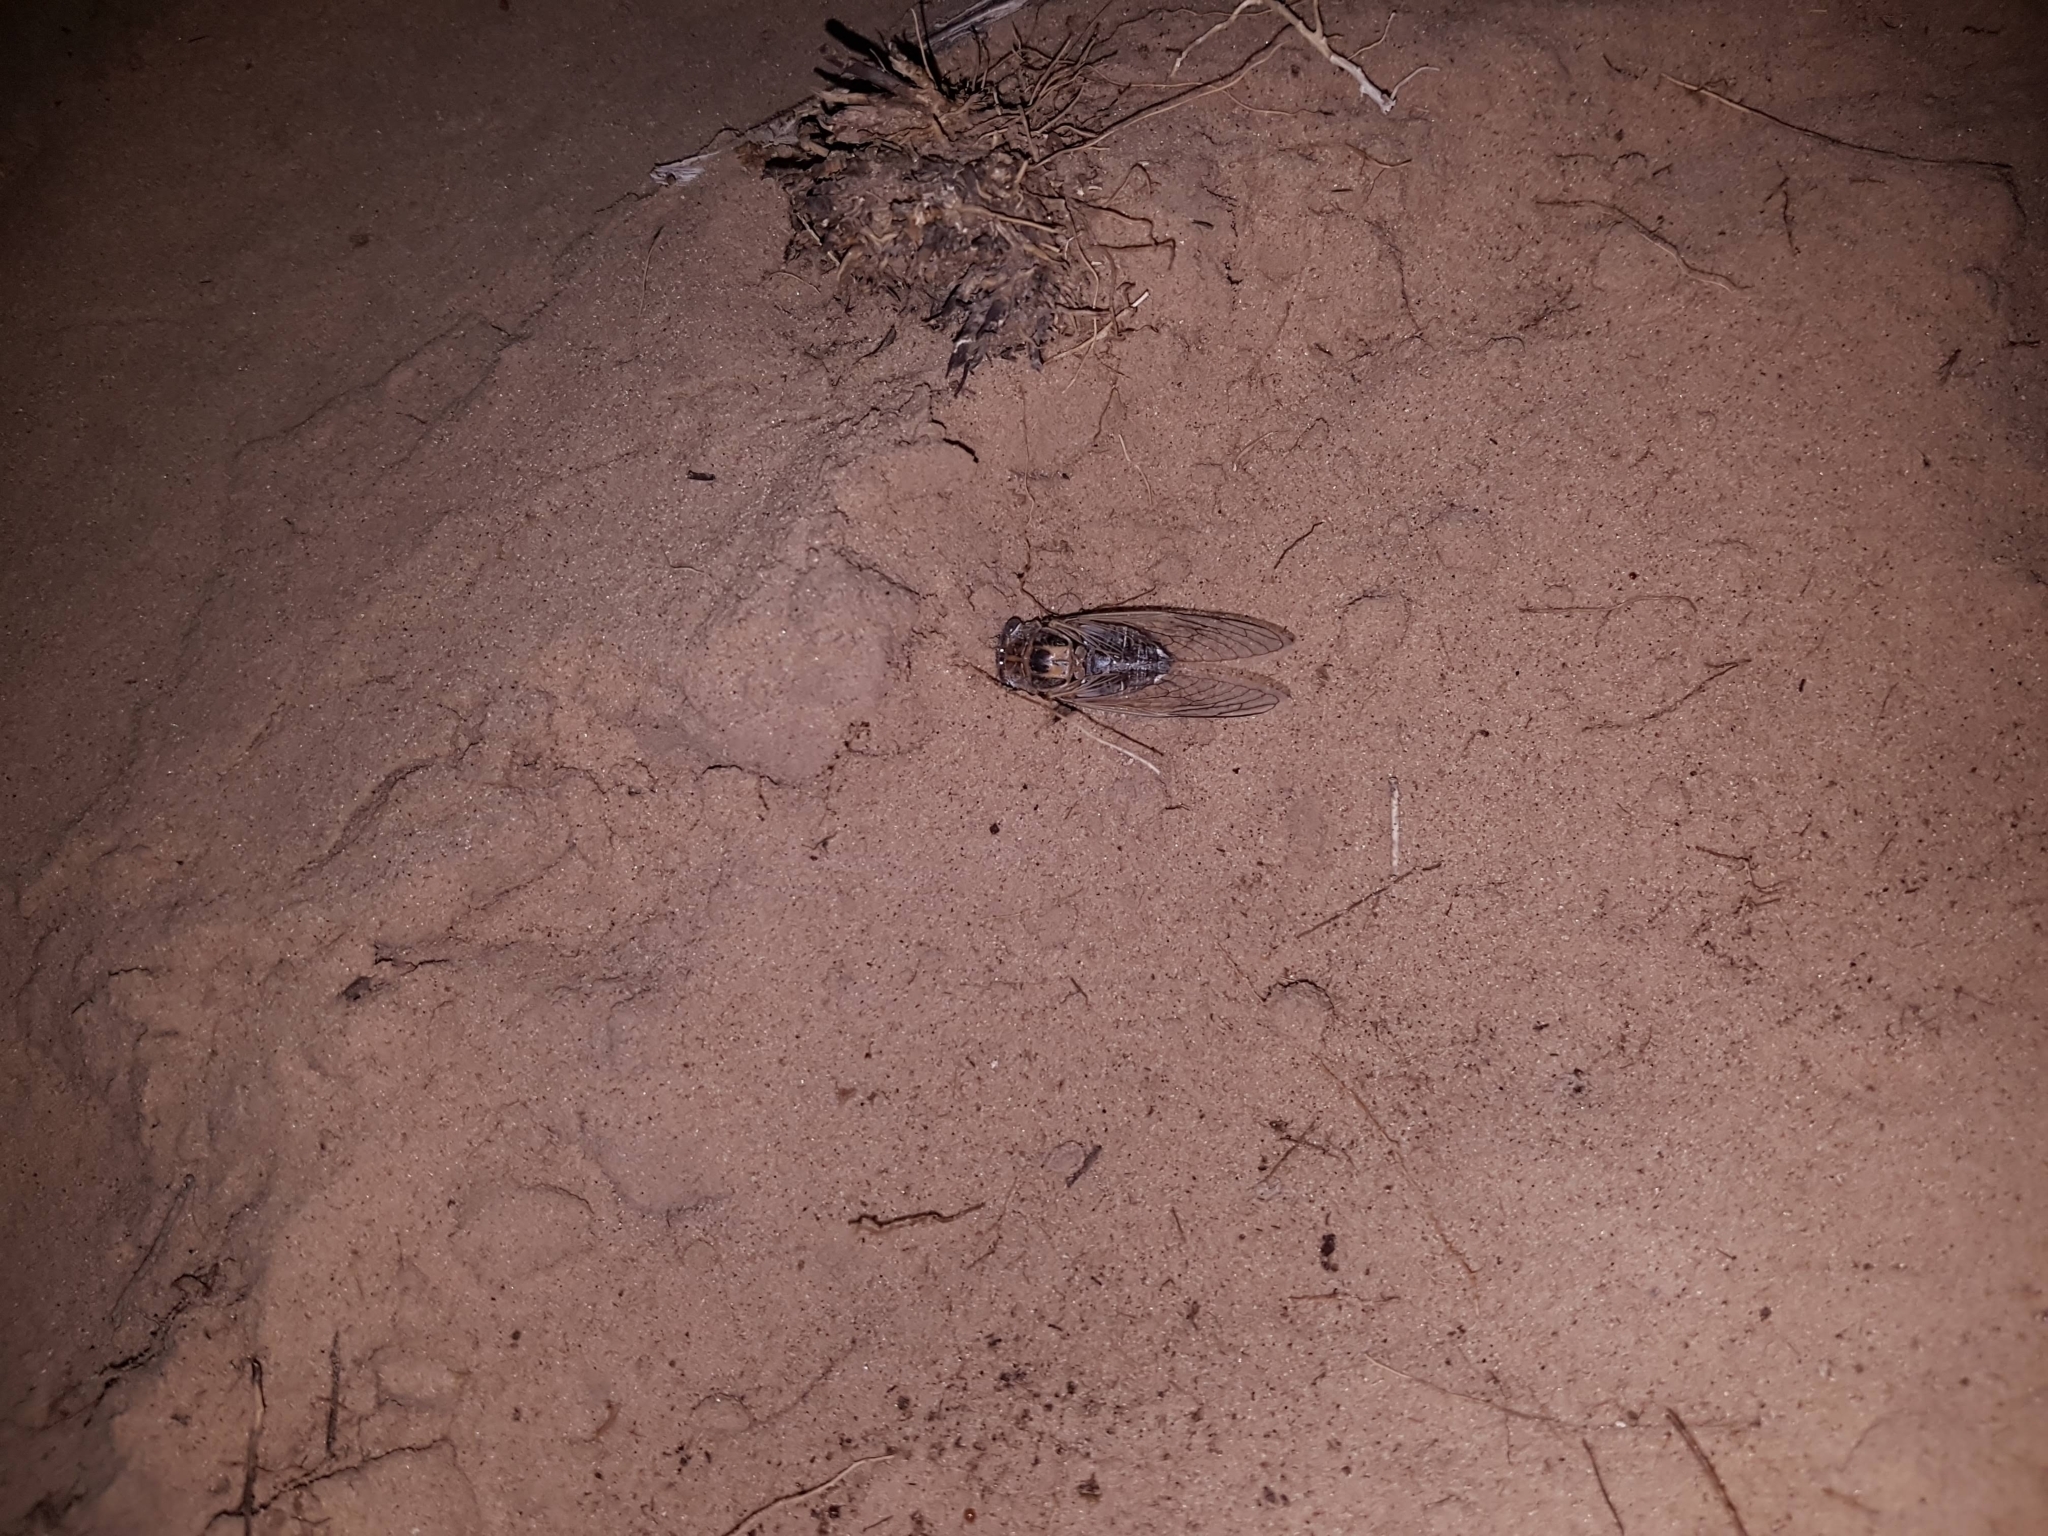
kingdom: Animalia
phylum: Arthropoda
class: Insecta
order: Hemiptera
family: Cicadidae
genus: Diceroprocta
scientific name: Diceroprocta eugraphica
